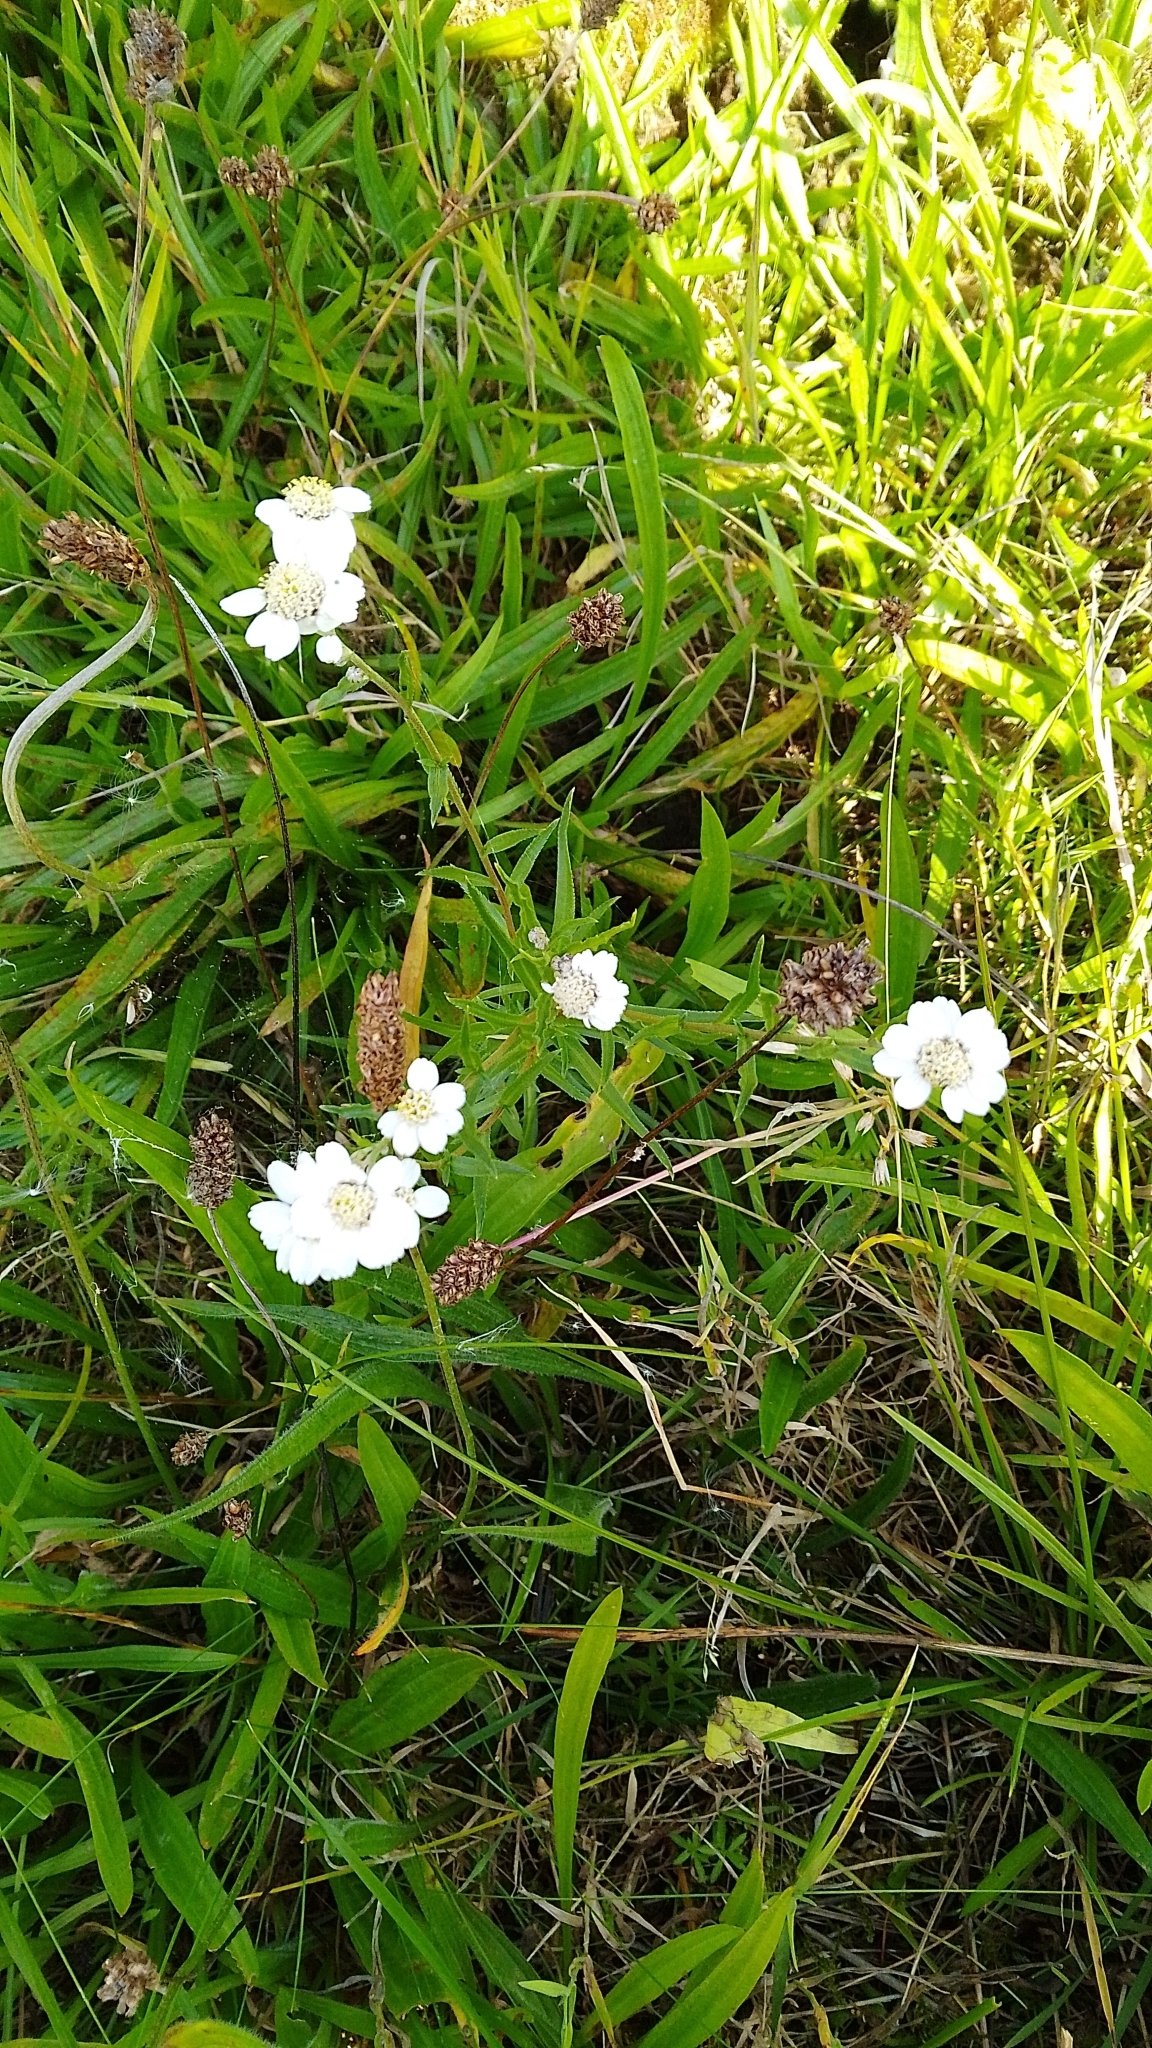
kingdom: Plantae
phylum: Tracheophyta
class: Magnoliopsida
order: Asterales
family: Asteraceae
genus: Achillea
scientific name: Achillea ptarmica
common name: Sneezeweed
